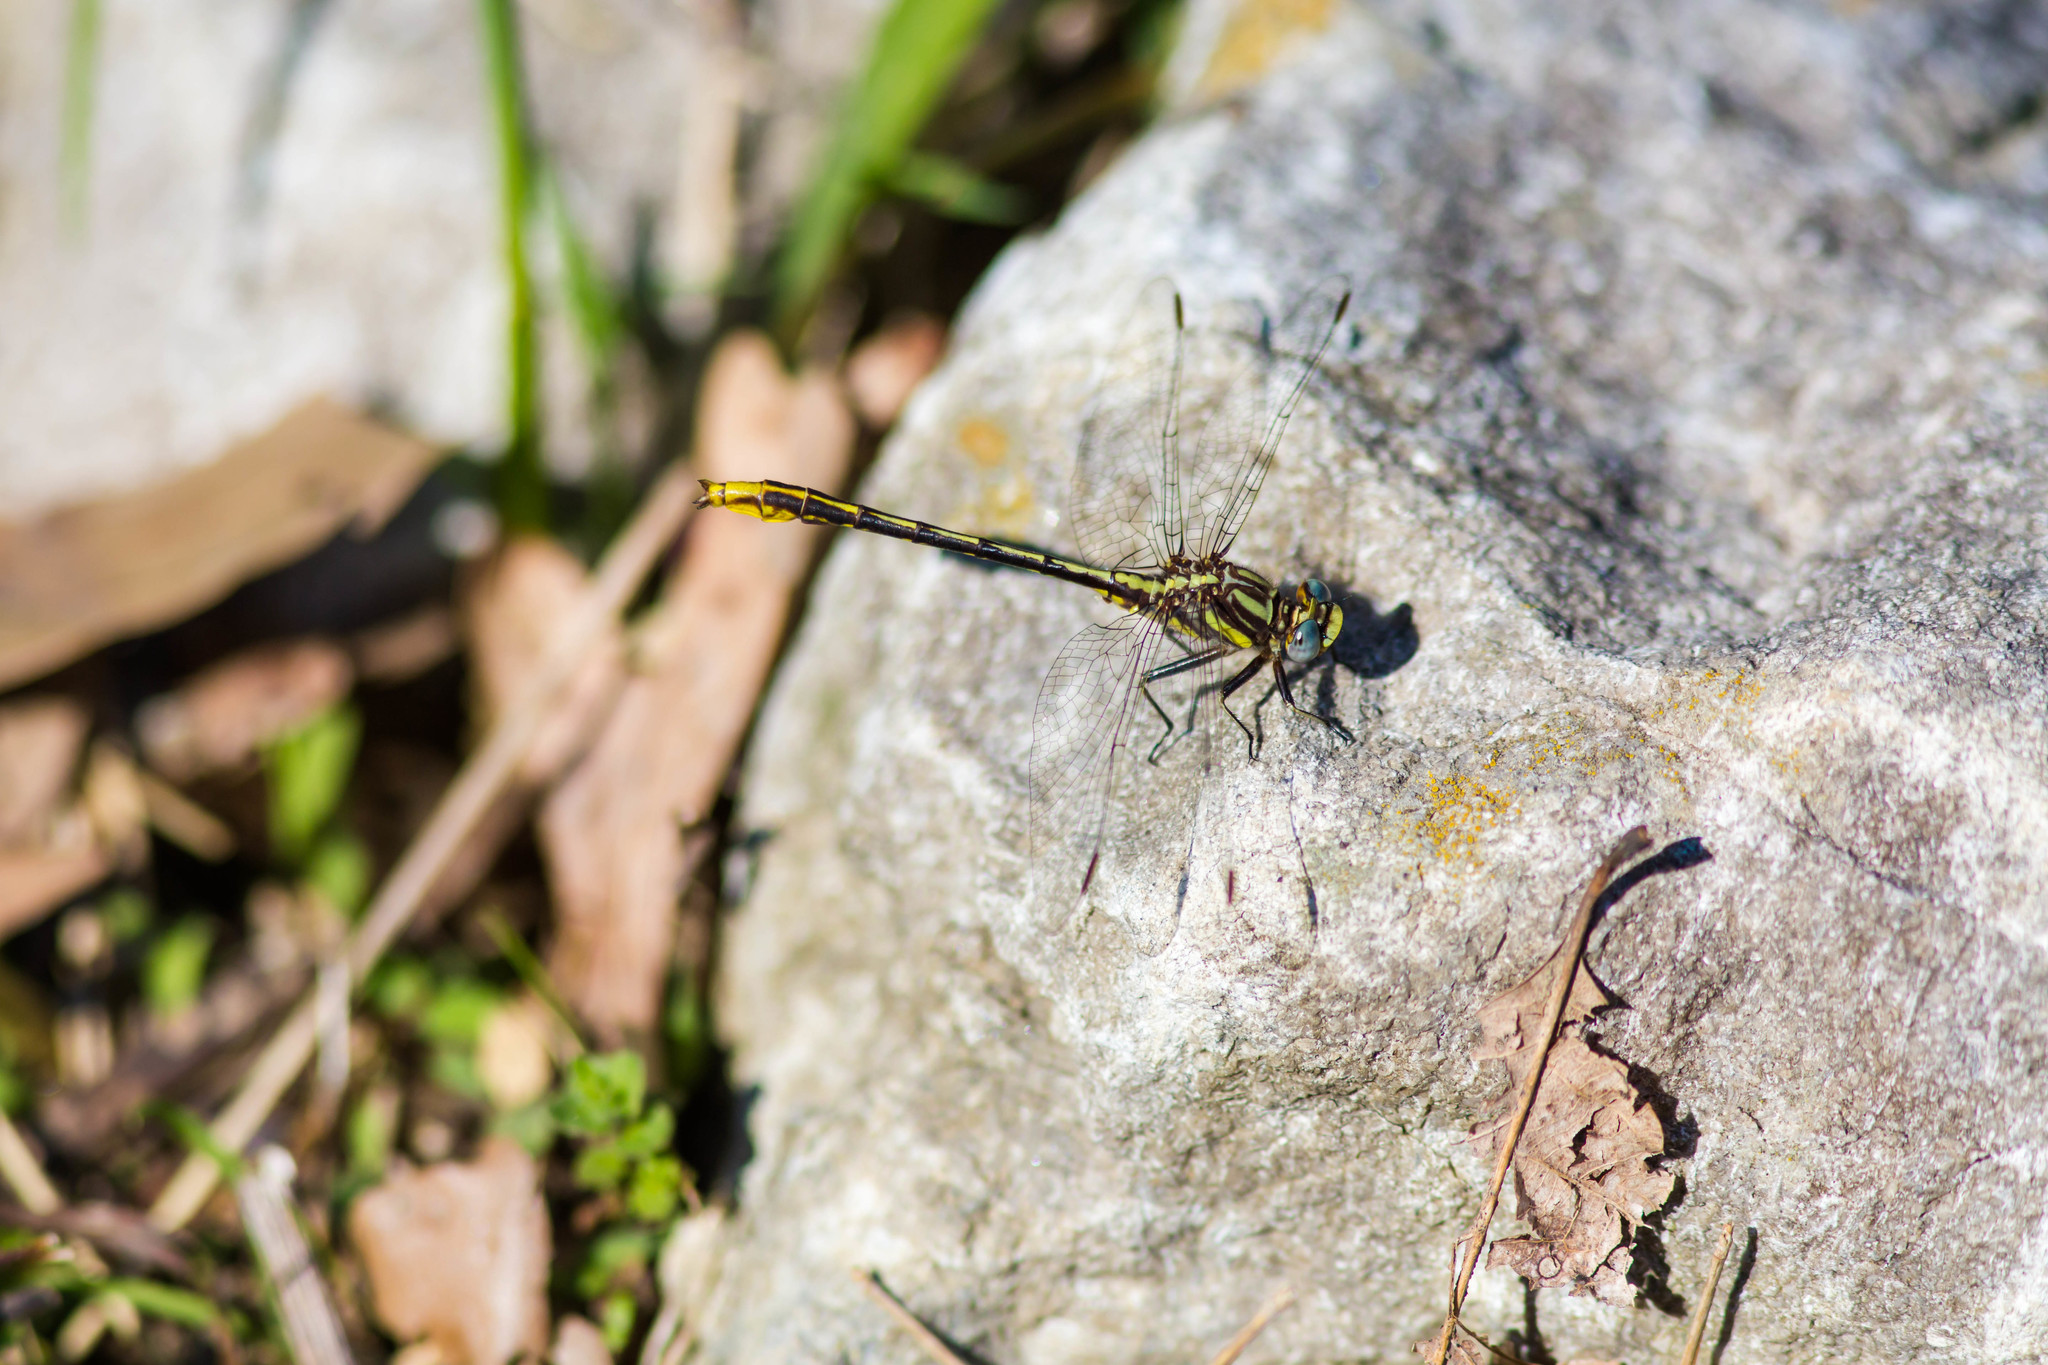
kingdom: Animalia
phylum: Arthropoda
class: Insecta
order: Odonata
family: Gomphidae
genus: Phanogomphus
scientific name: Phanogomphus exilis
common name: Lancet clubtail
